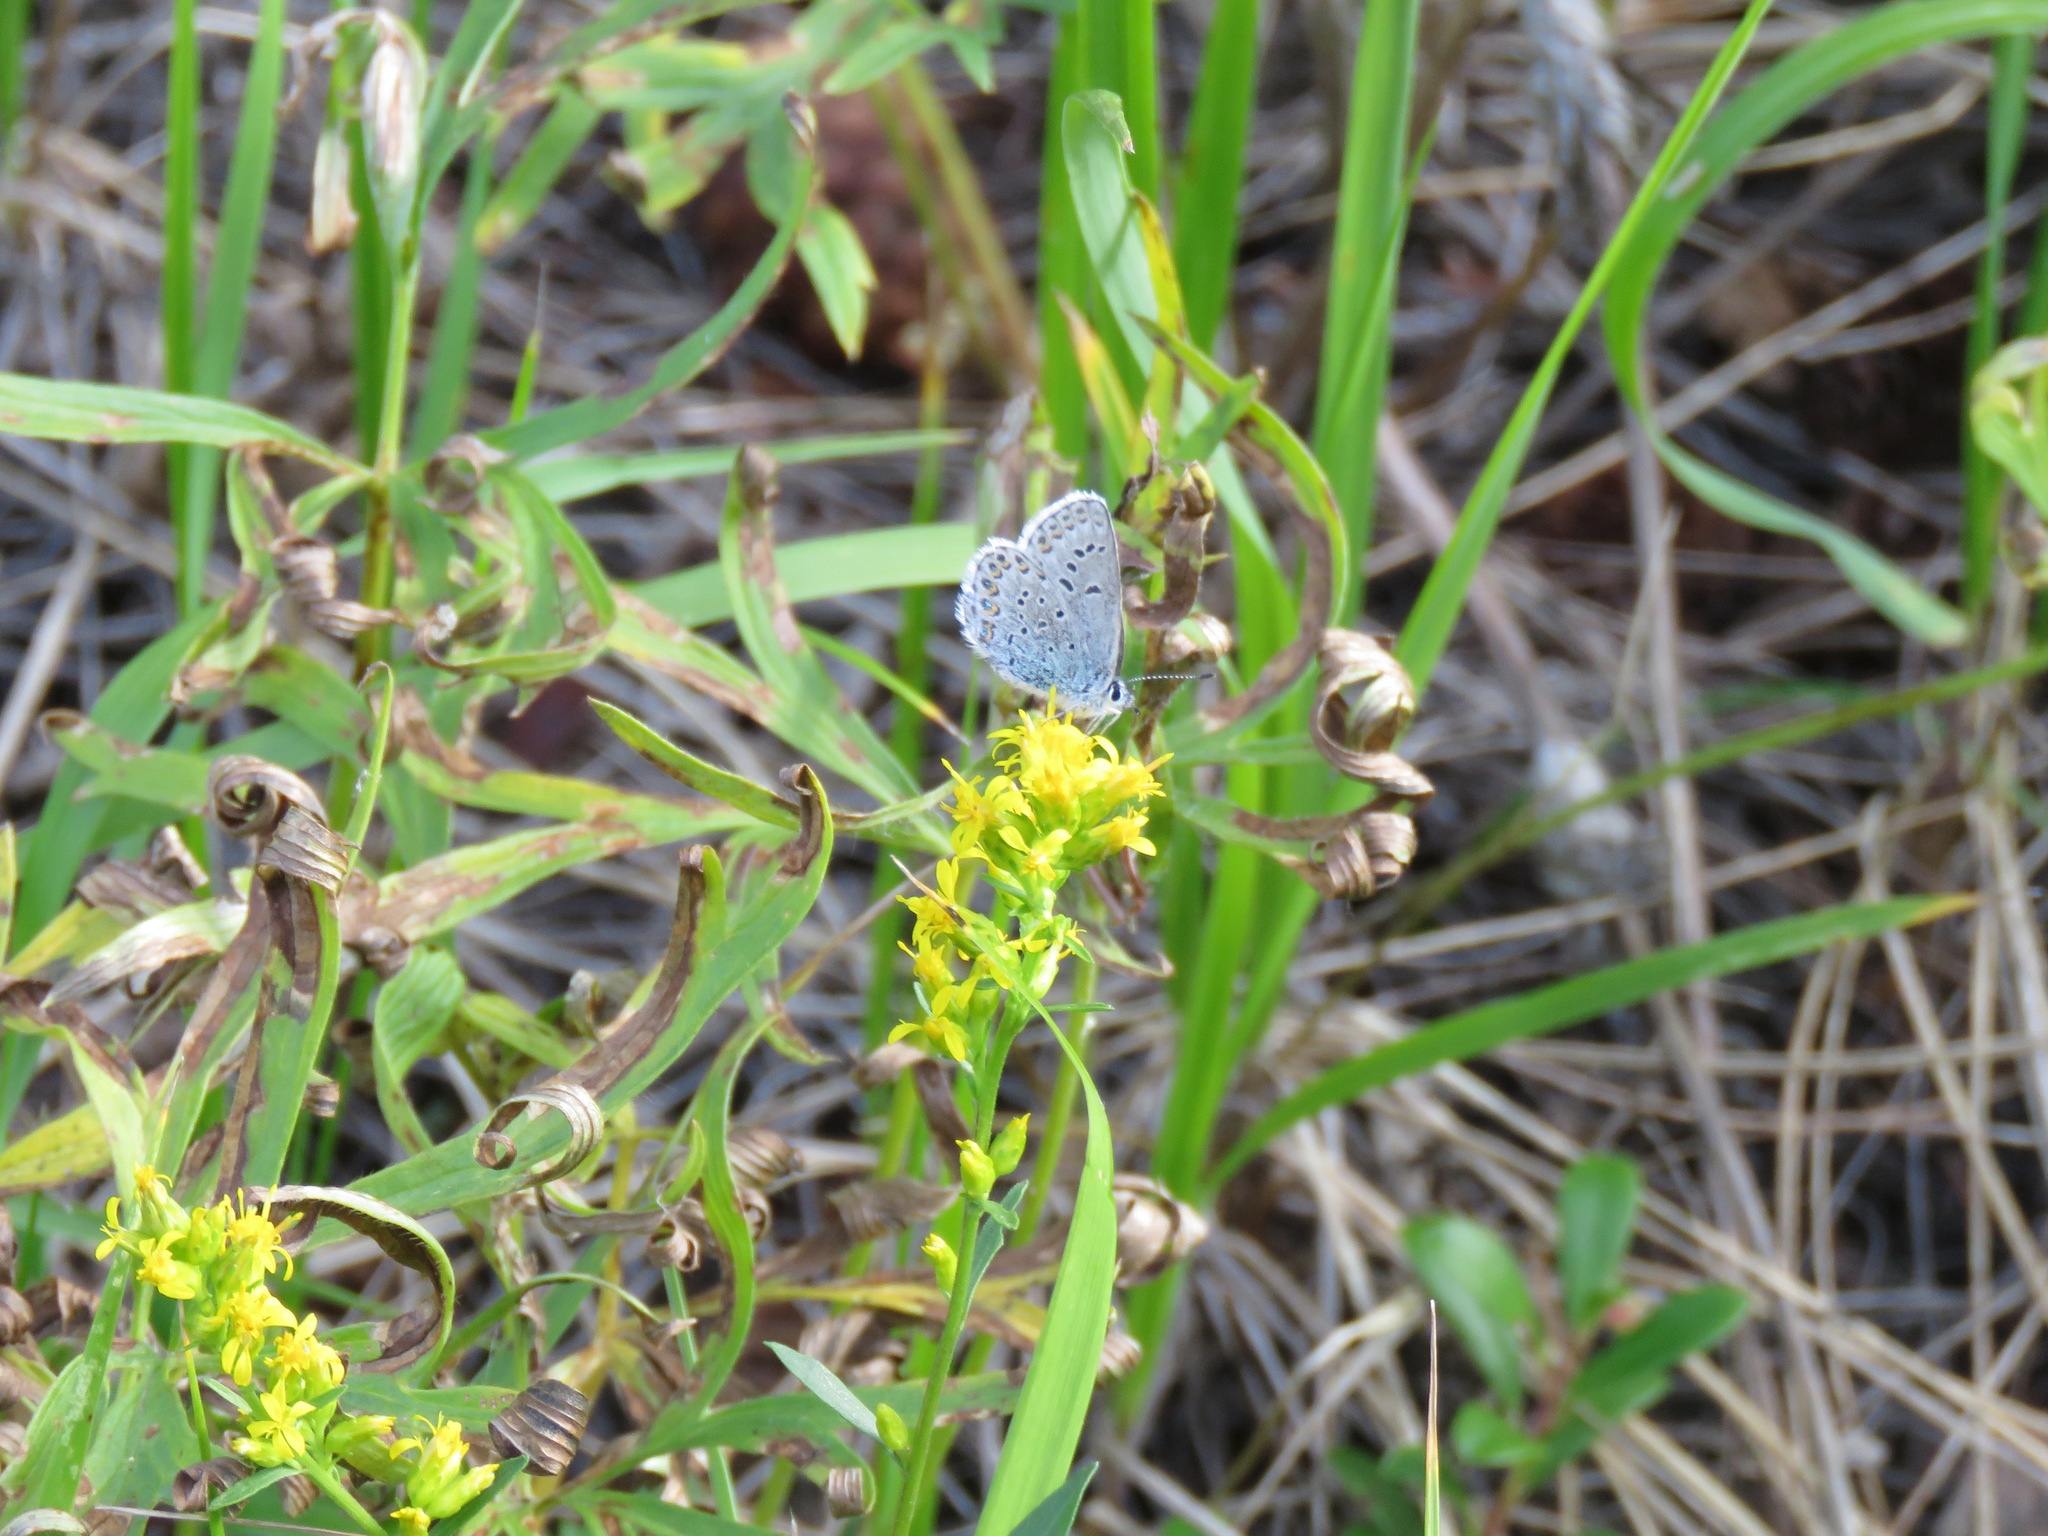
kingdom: Animalia
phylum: Arthropoda
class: Insecta
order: Lepidoptera
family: Lycaenidae
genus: Lycaeides
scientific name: Lycaeides idas
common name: Northern blue
